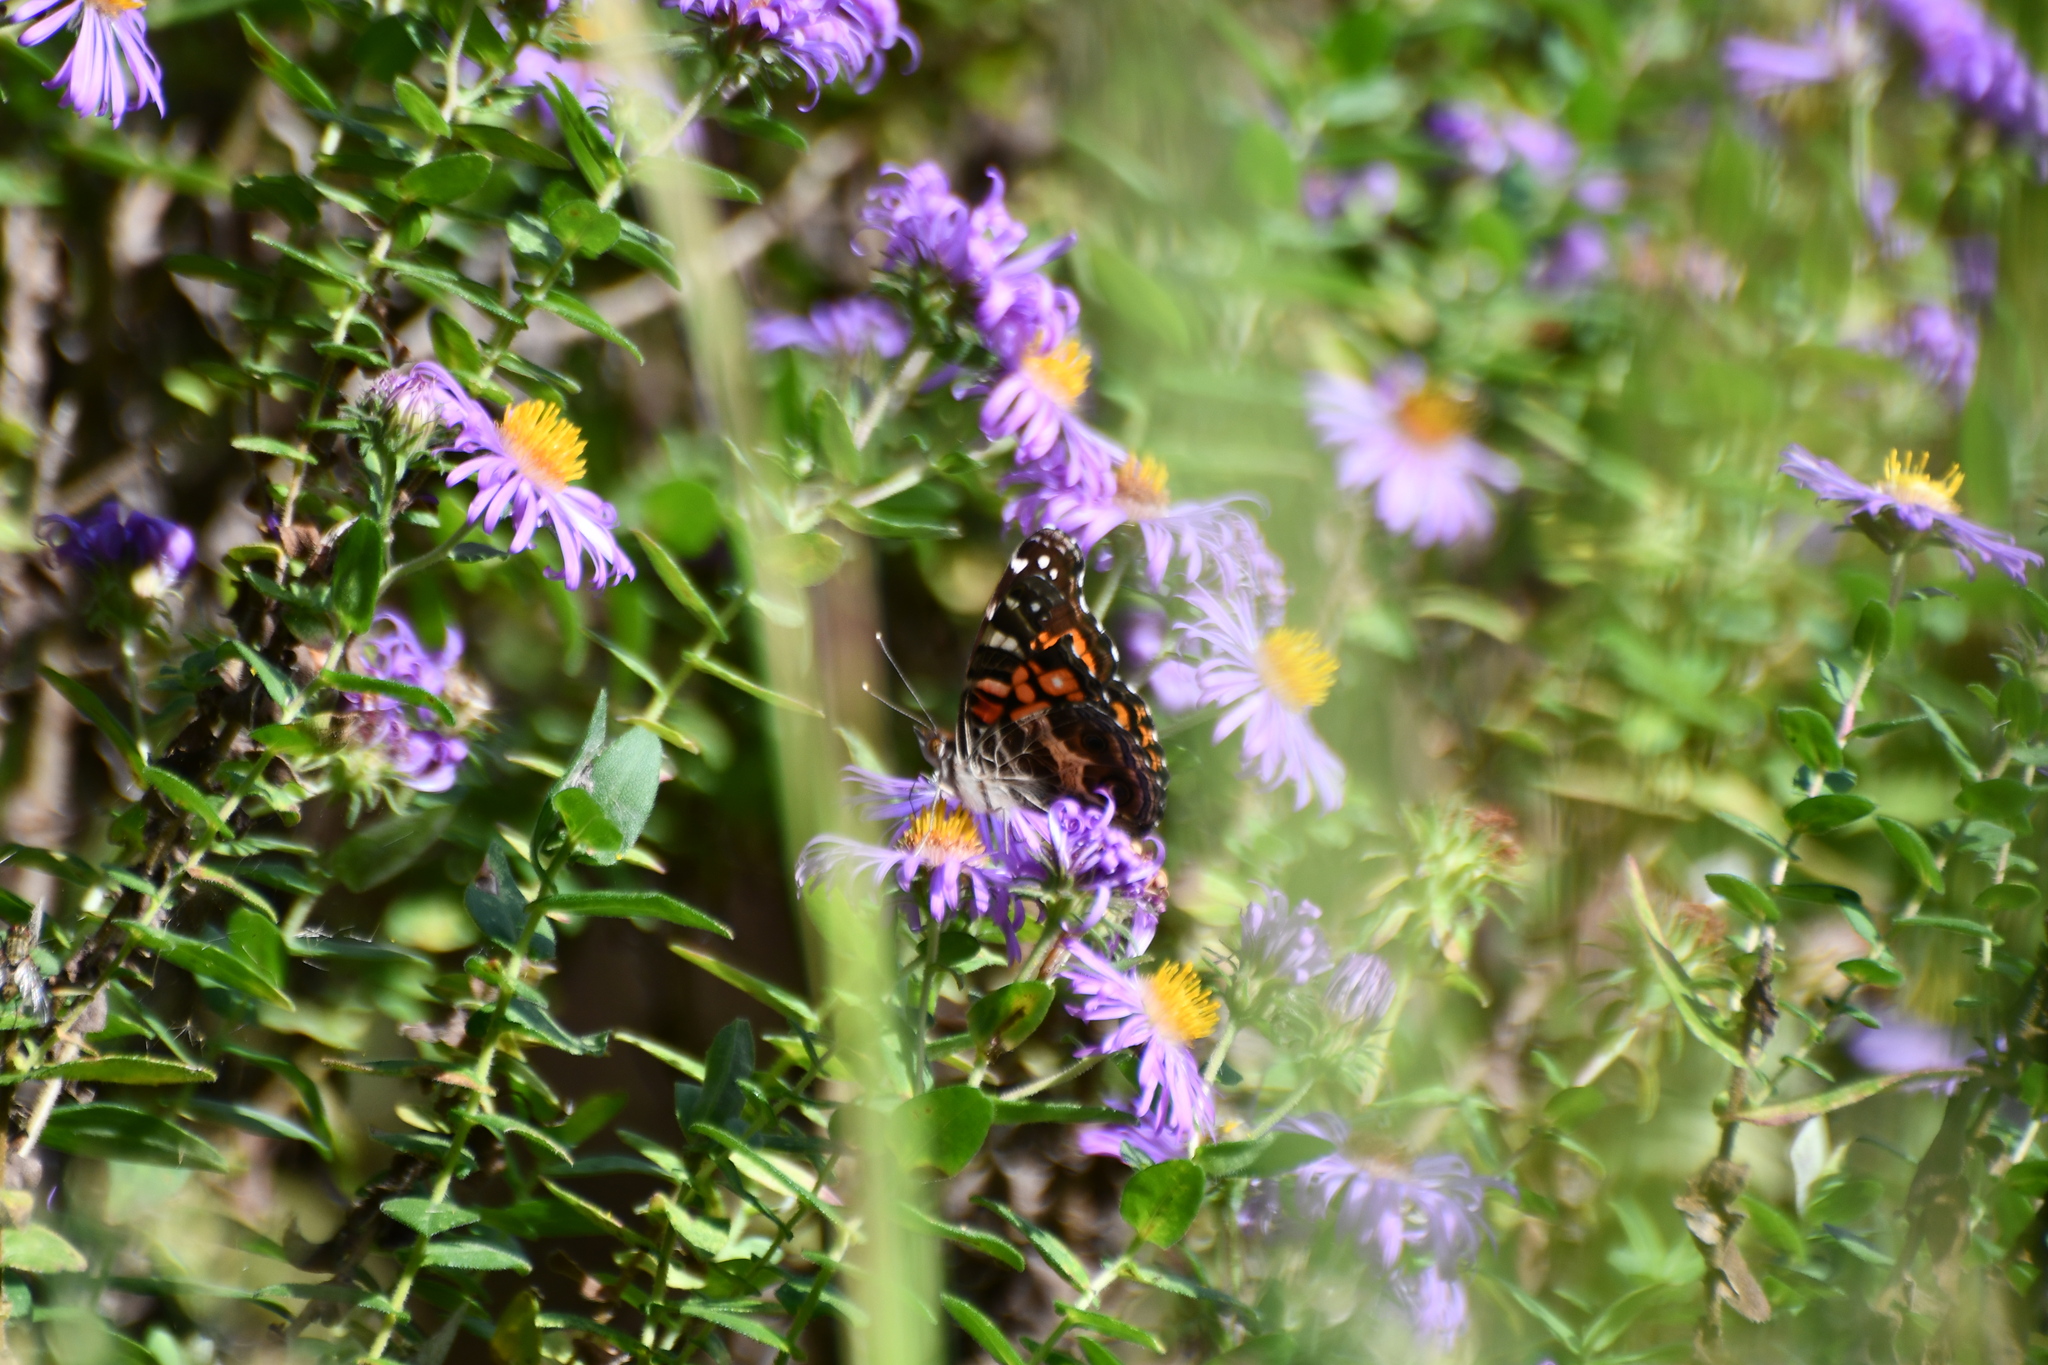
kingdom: Animalia
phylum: Arthropoda
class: Insecta
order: Lepidoptera
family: Nymphalidae
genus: Vanessa
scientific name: Vanessa virginiensis
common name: American lady
